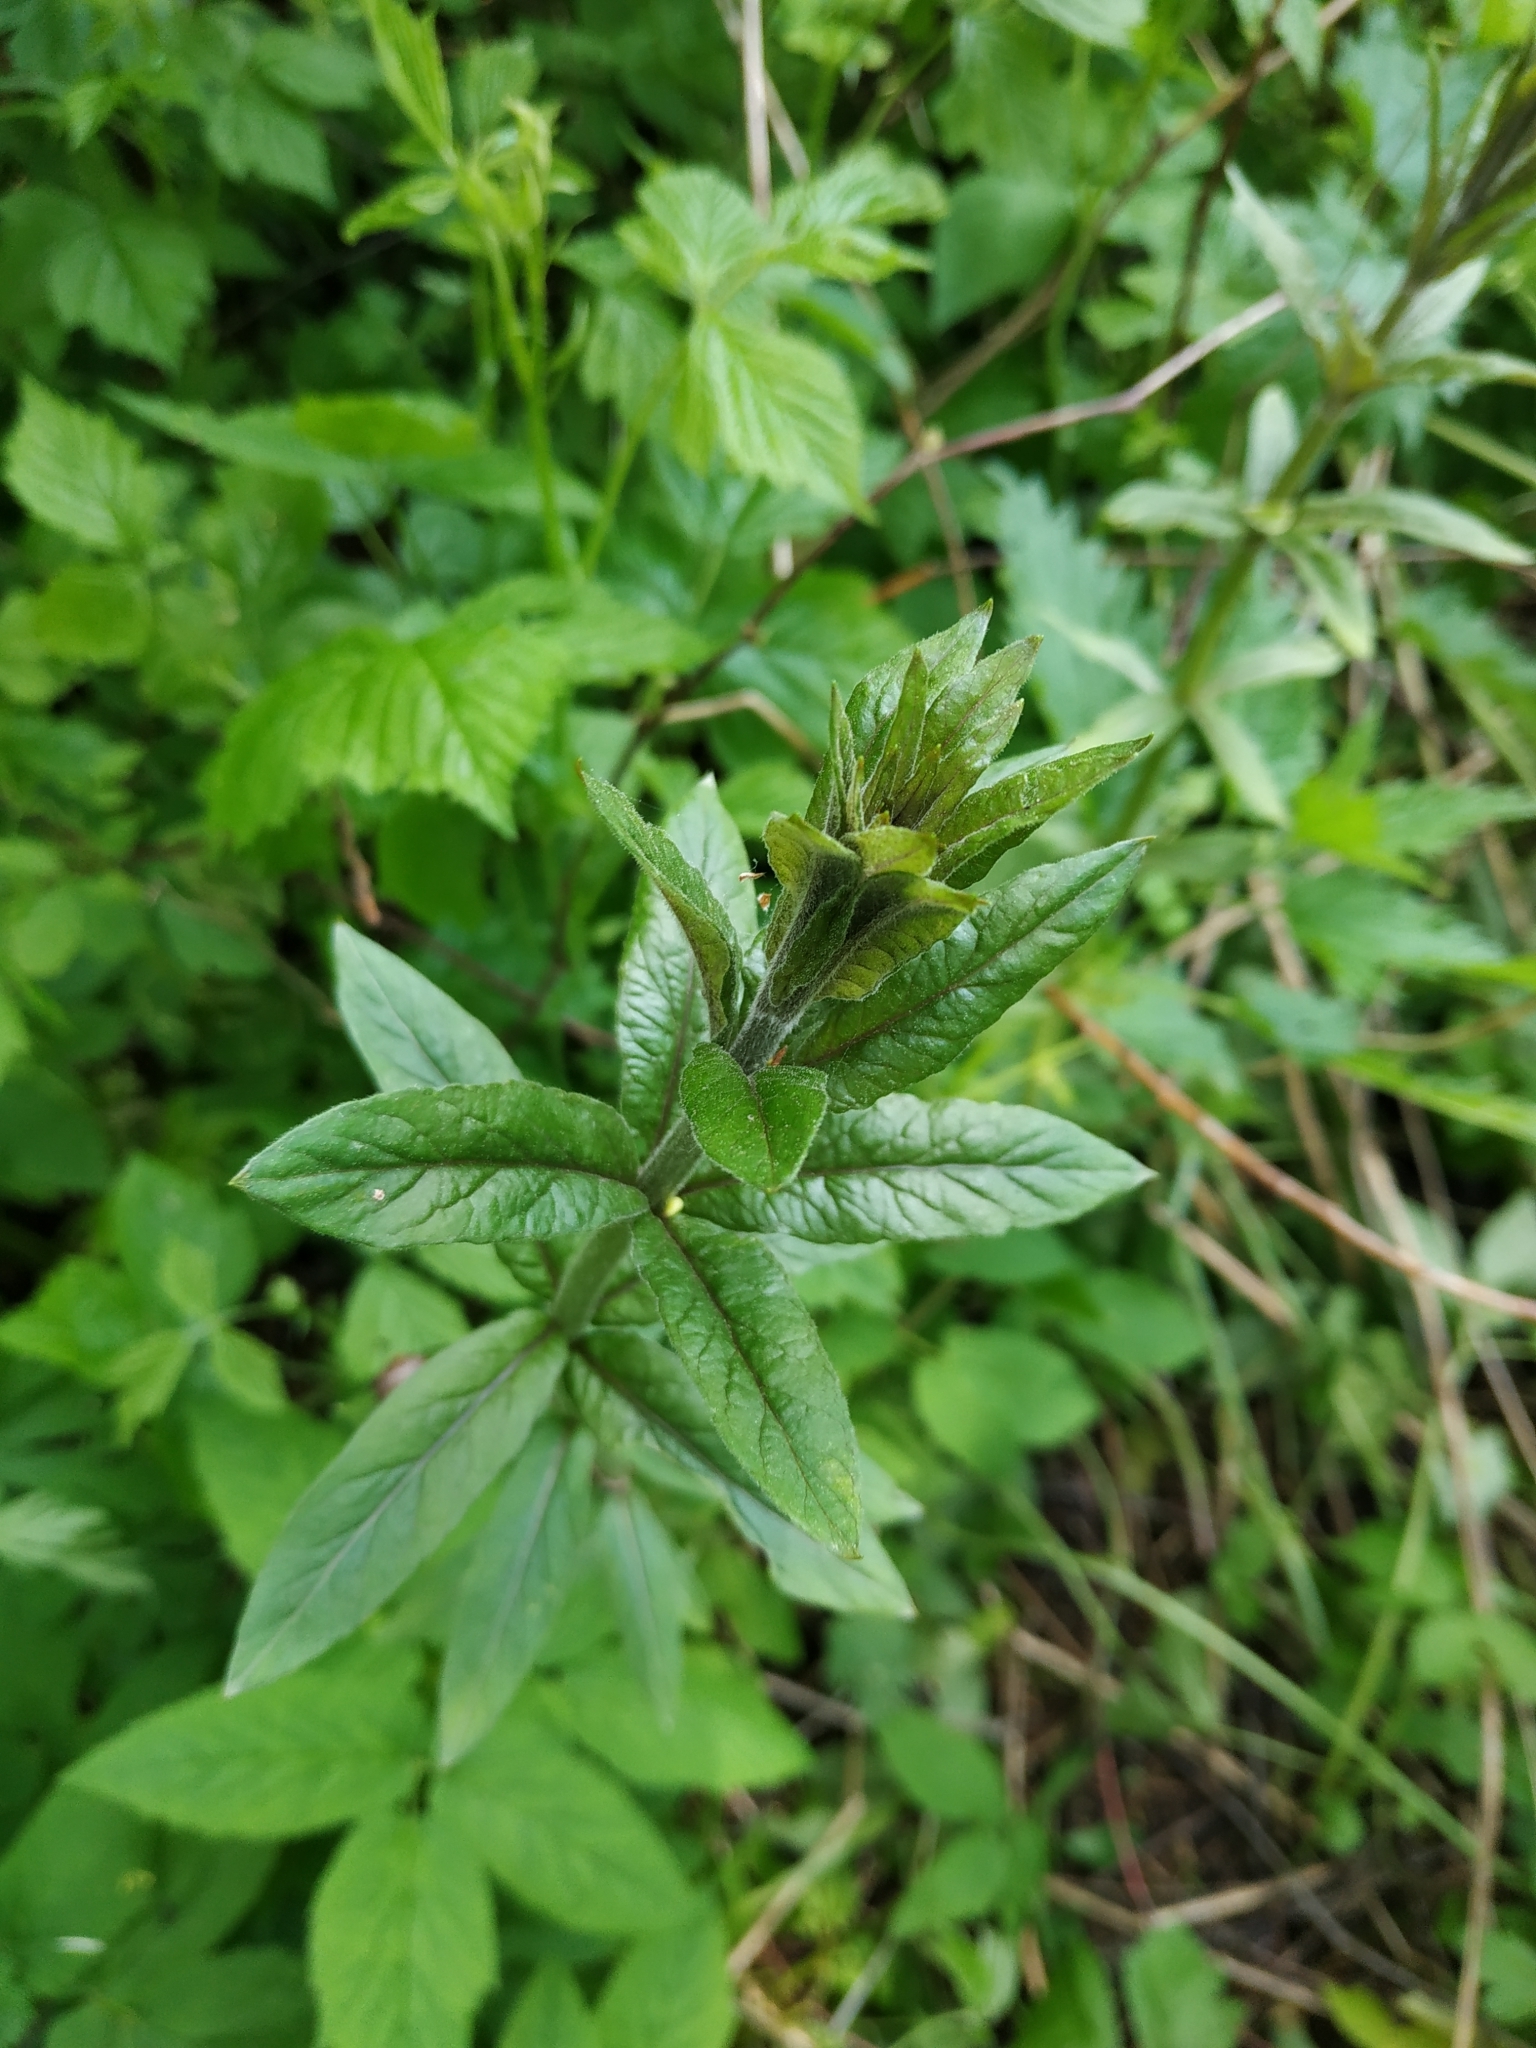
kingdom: Plantae
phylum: Tracheophyta
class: Magnoliopsida
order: Ericales
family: Primulaceae
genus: Lysimachia
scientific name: Lysimachia vulgaris
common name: Yellow loosestrife
